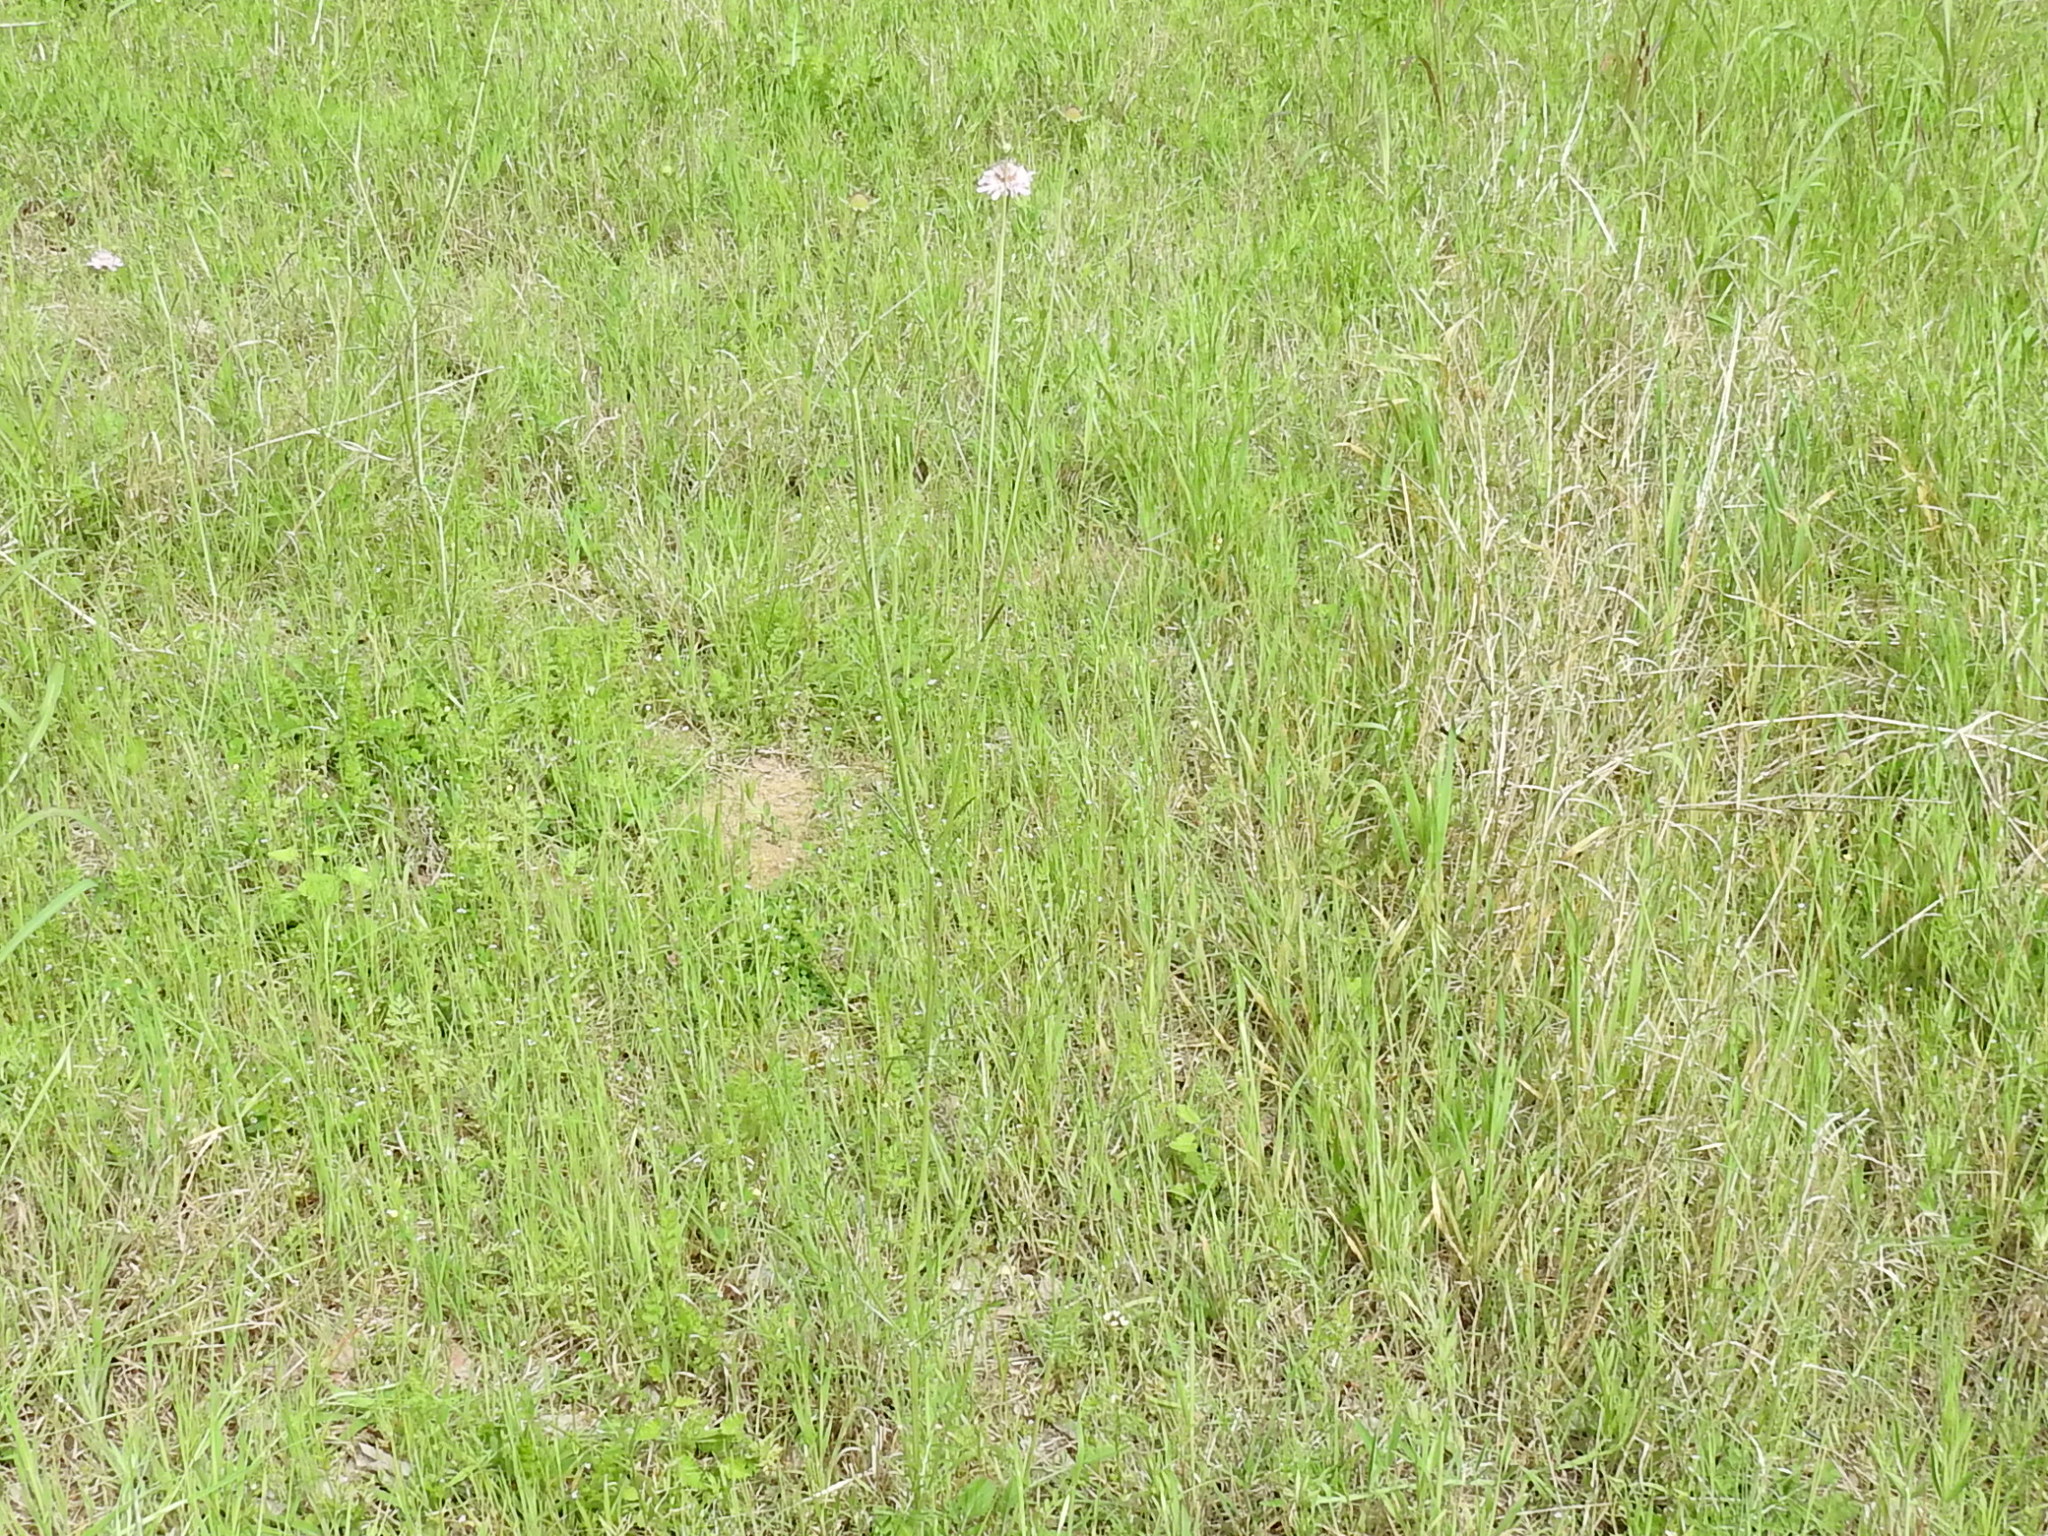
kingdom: Plantae
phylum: Tracheophyta
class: Magnoliopsida
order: Dipsacales
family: Caprifoliaceae
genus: Sixalix
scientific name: Sixalix atropurpurea
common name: Sweet scabious
